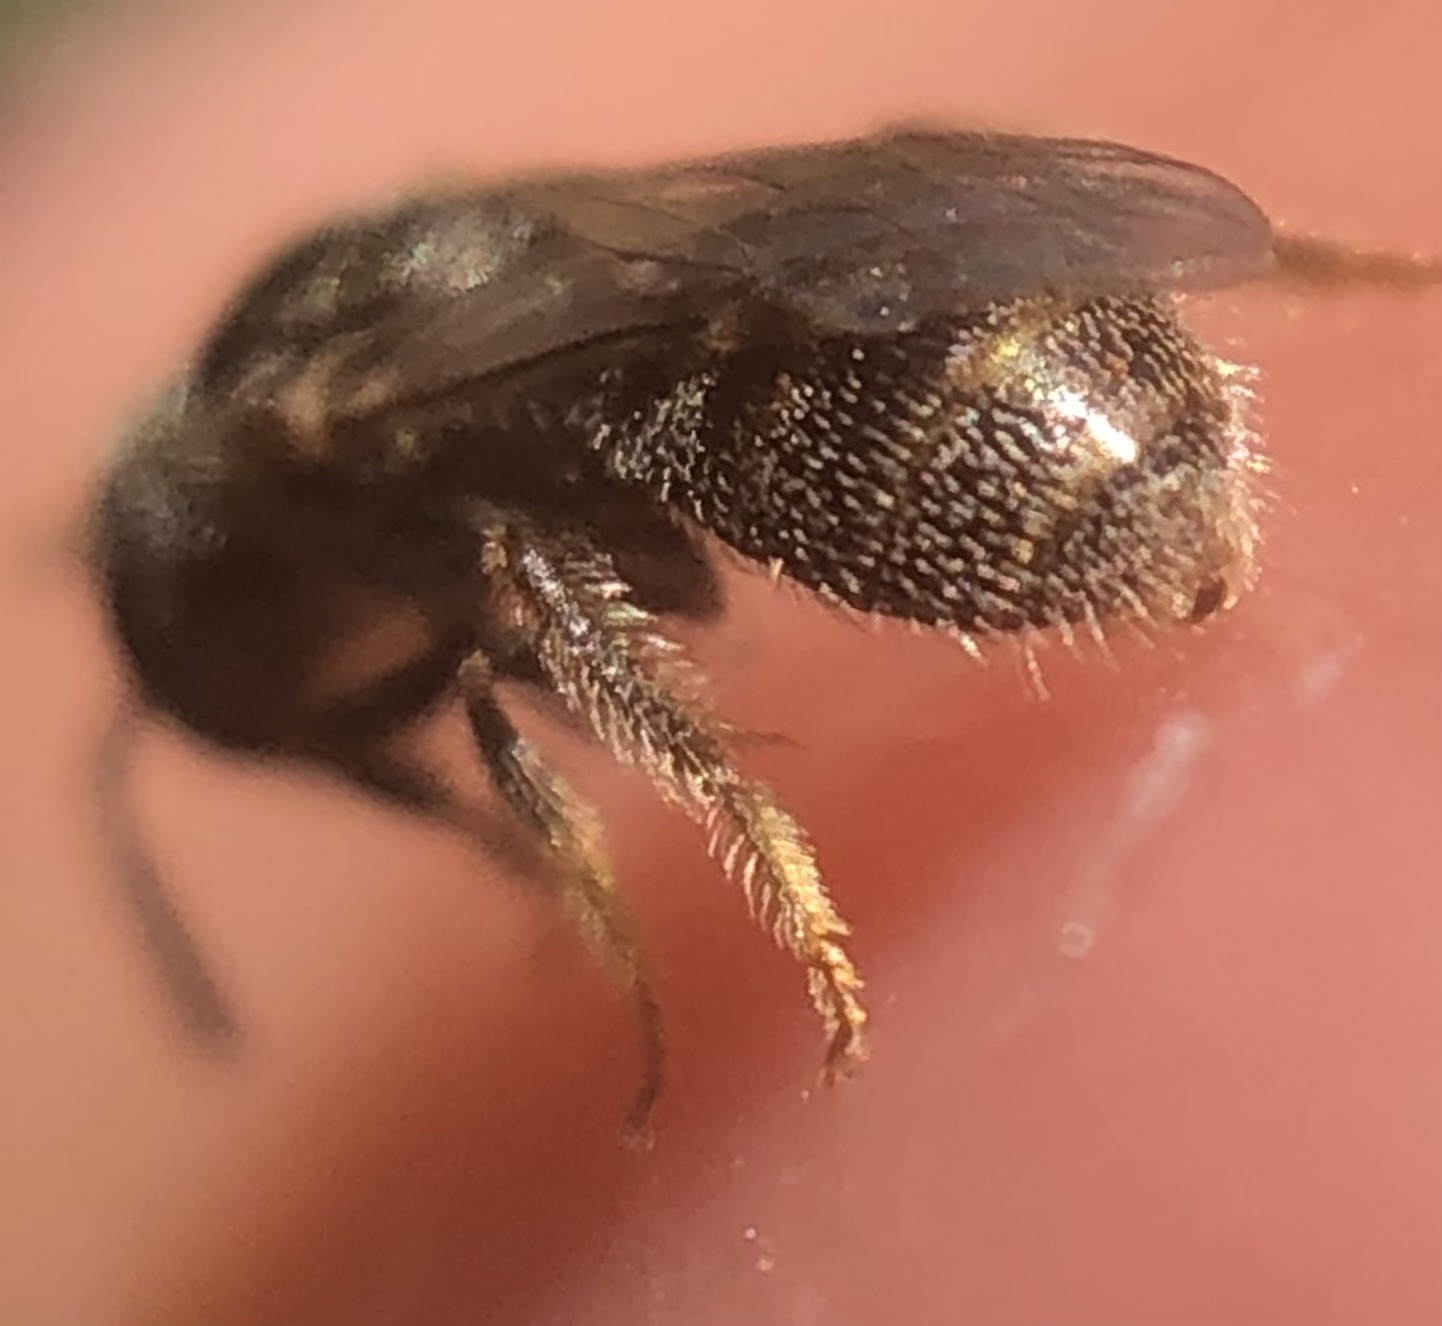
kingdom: Animalia
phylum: Arthropoda
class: Insecta
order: Hymenoptera
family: Halictidae
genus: Lasioglossum
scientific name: Lasioglossum imitatum
